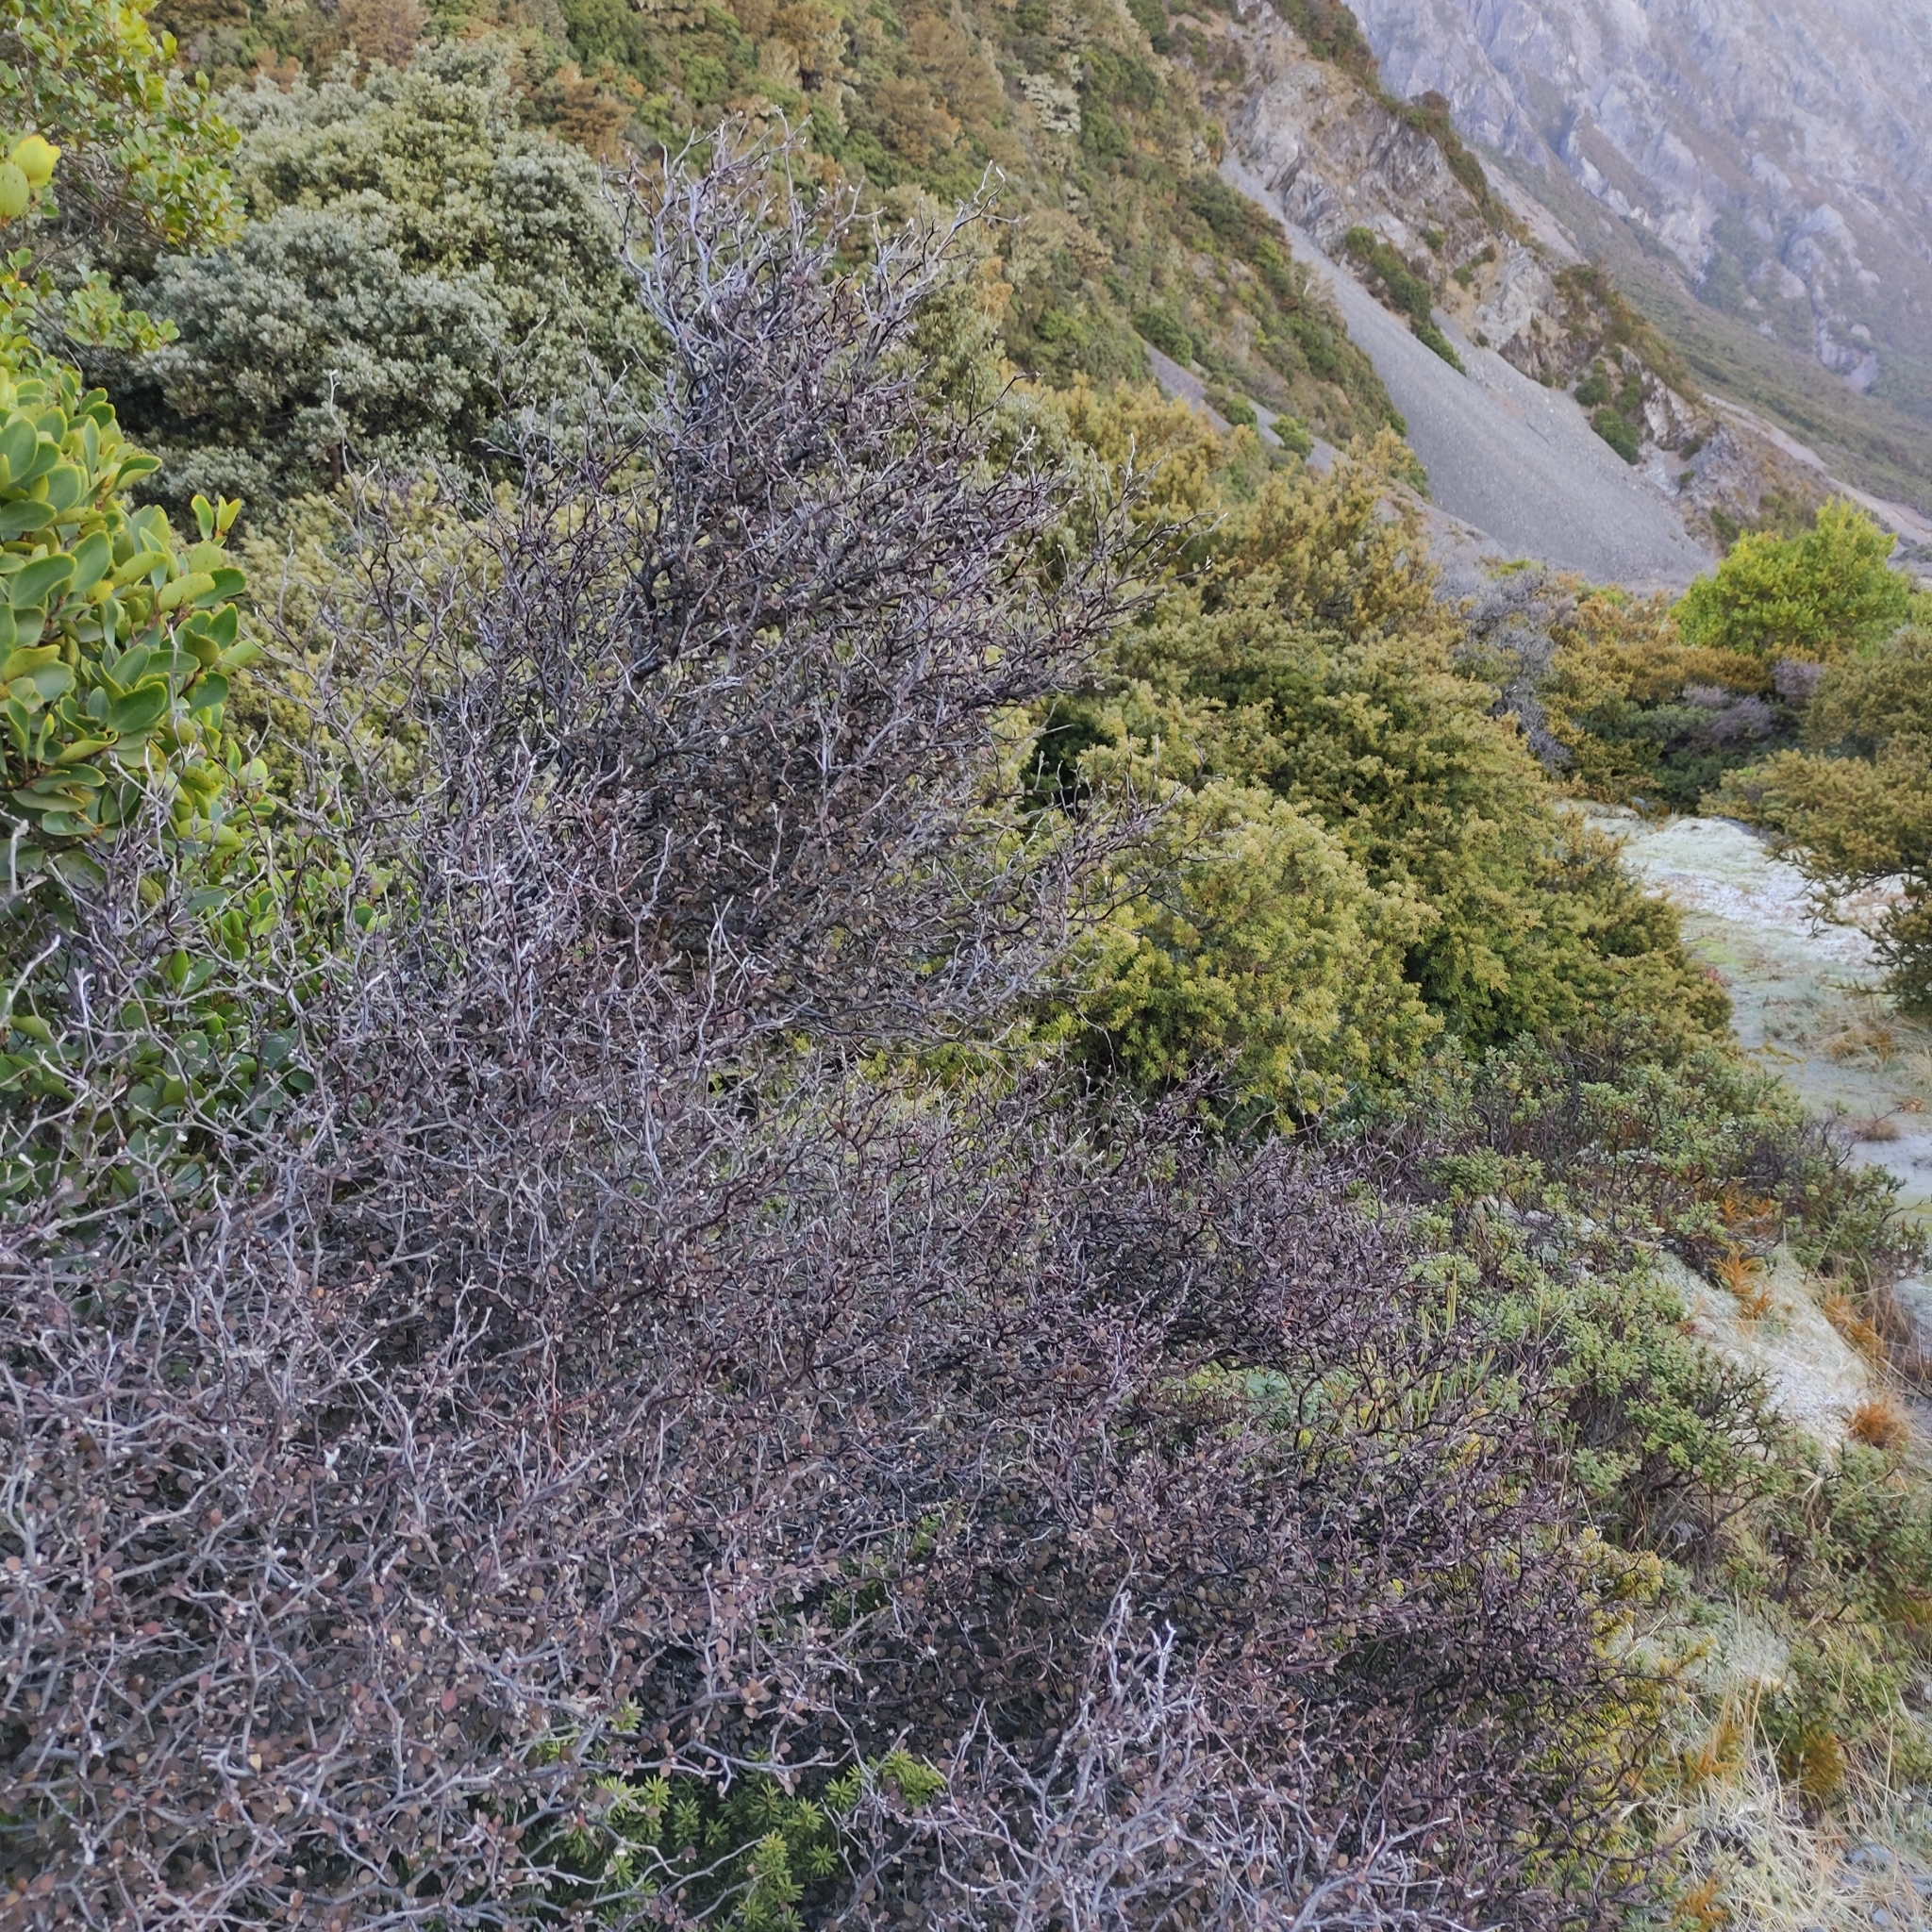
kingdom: Plantae
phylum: Tracheophyta
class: Magnoliopsida
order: Asterales
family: Argophyllaceae
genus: Corokia
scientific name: Corokia cotoneaster
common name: Wire nettingbush
